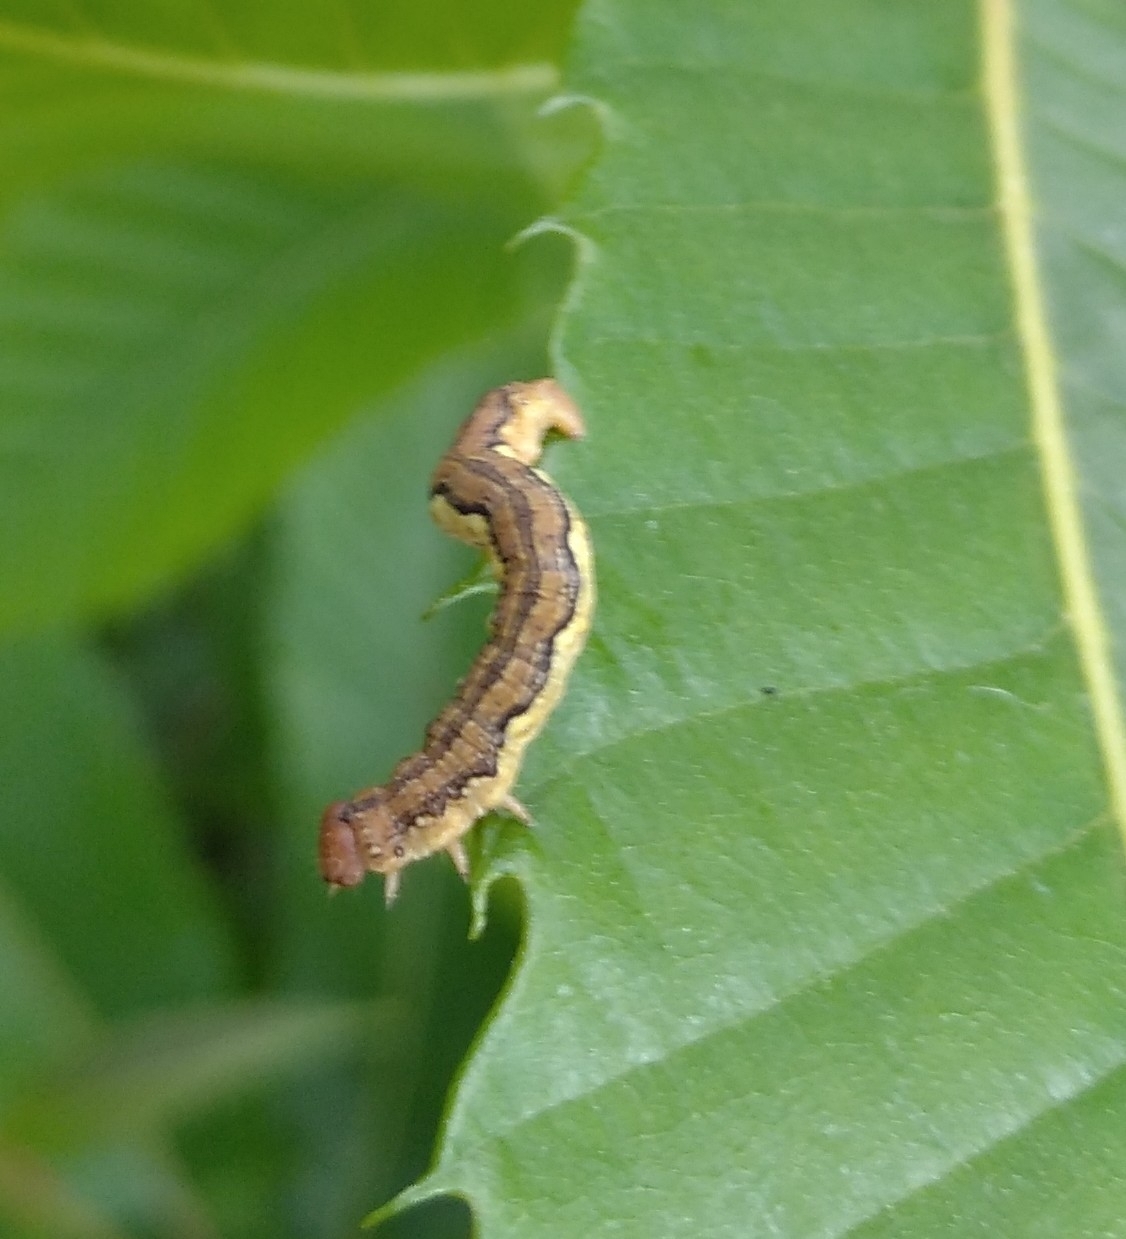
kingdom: Animalia
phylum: Arthropoda
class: Insecta
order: Lepidoptera
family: Geometridae
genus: Erannis
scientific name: Erannis defoliaria
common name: Mottled umber
